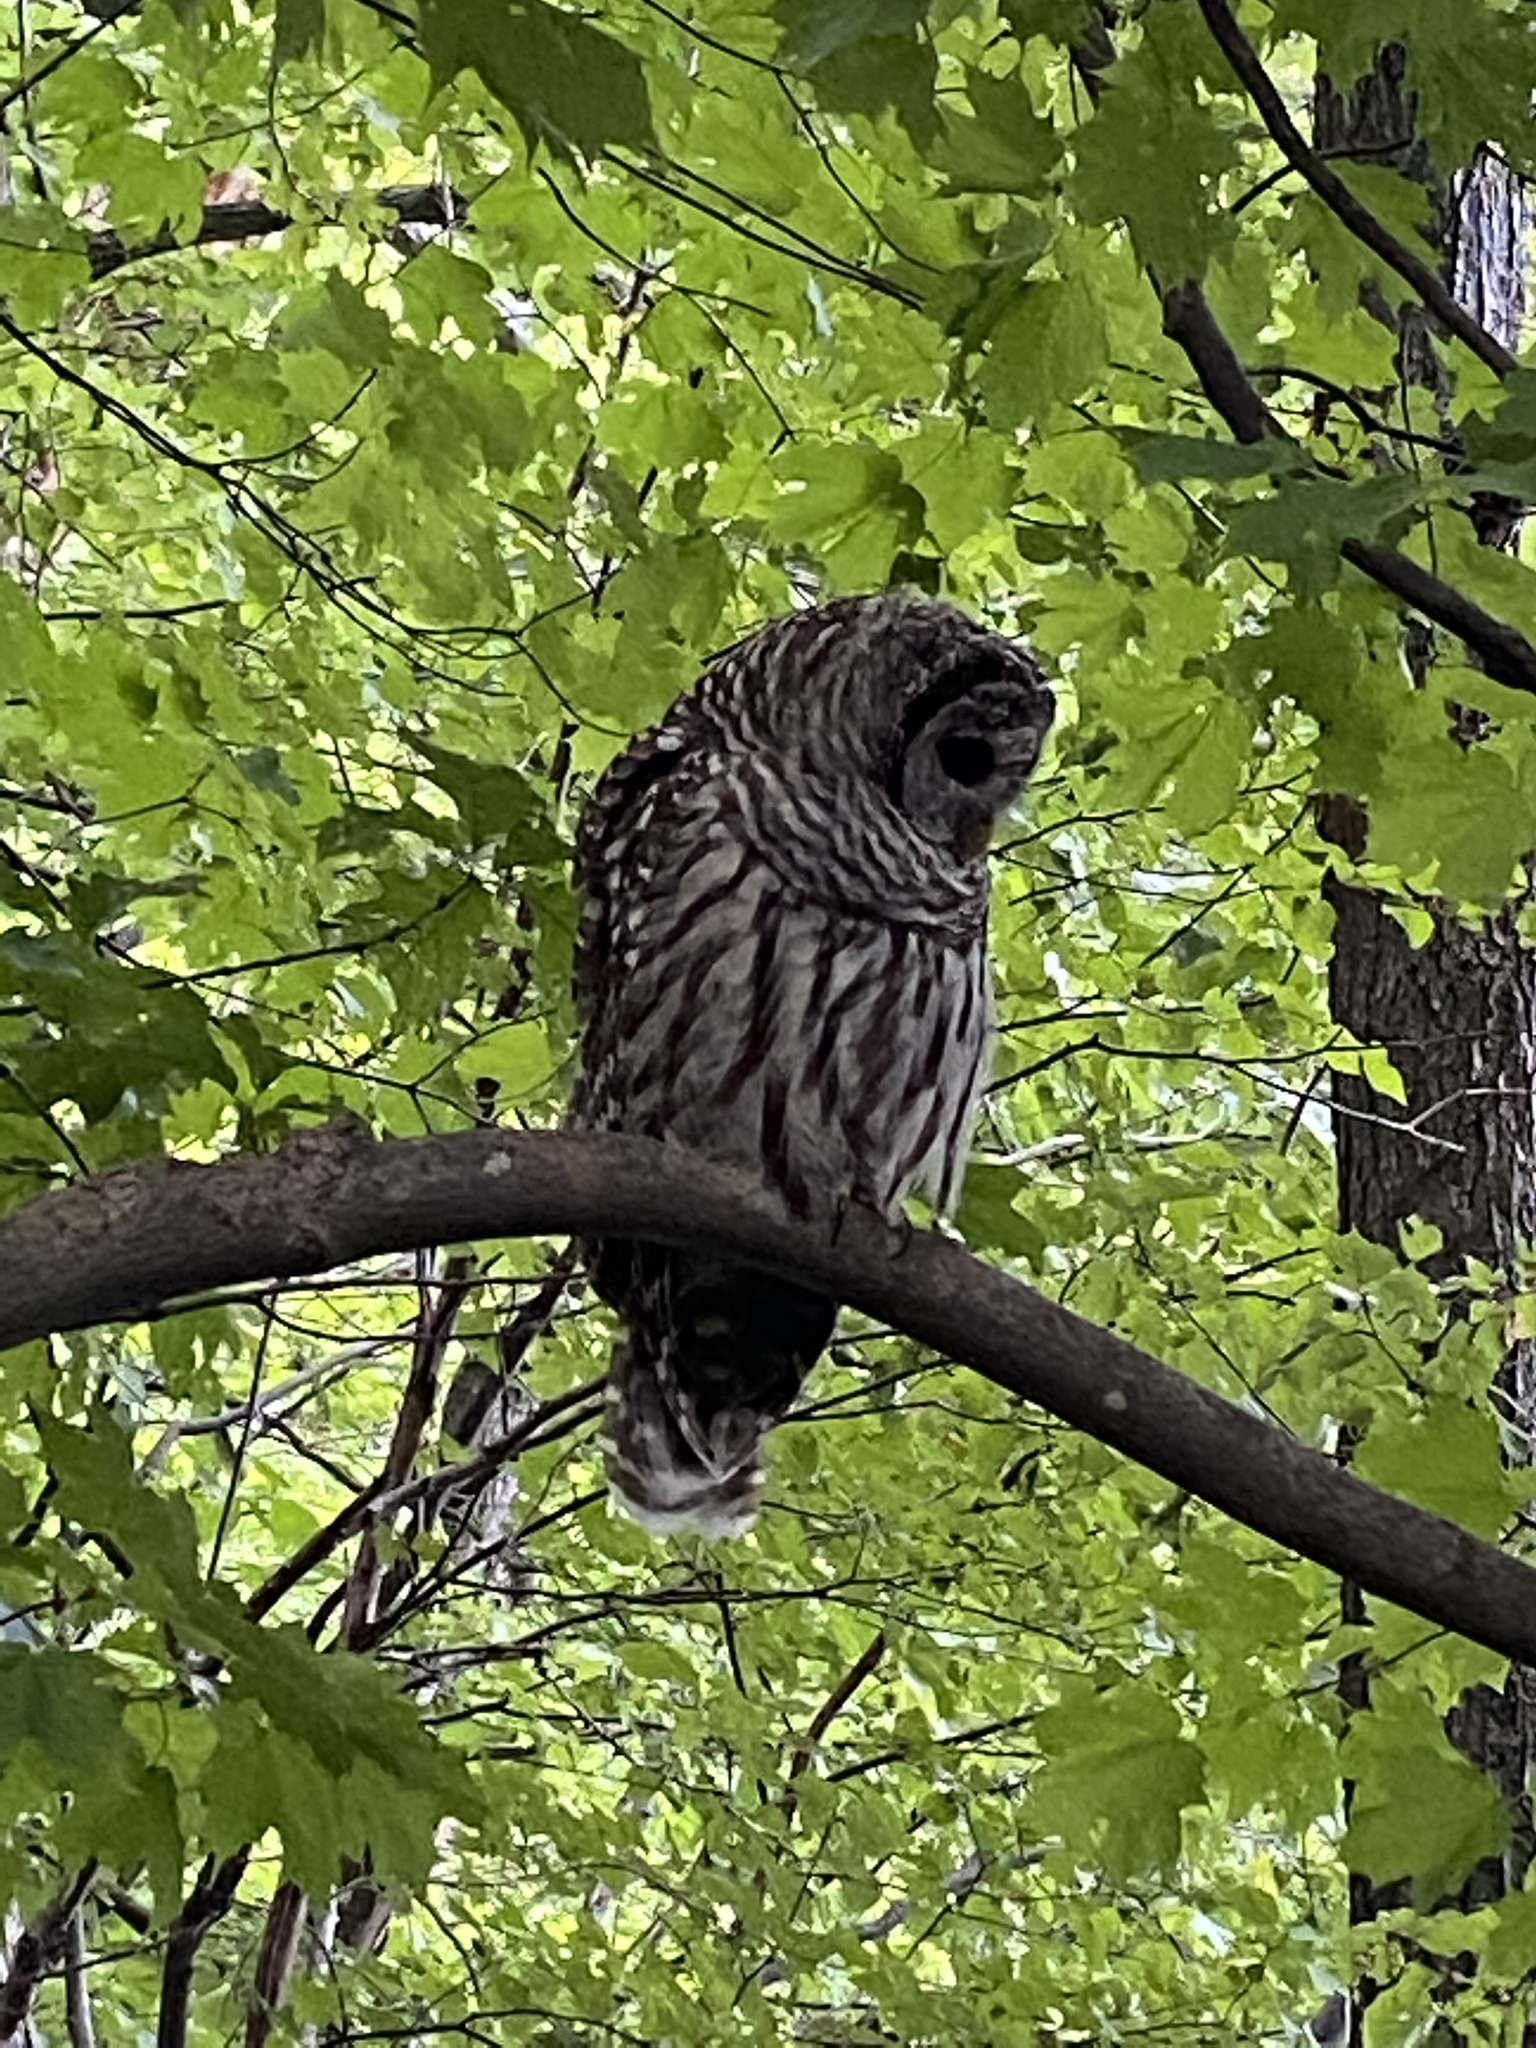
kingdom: Animalia
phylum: Chordata
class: Aves
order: Strigiformes
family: Strigidae
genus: Strix
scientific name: Strix varia
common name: Barred owl
